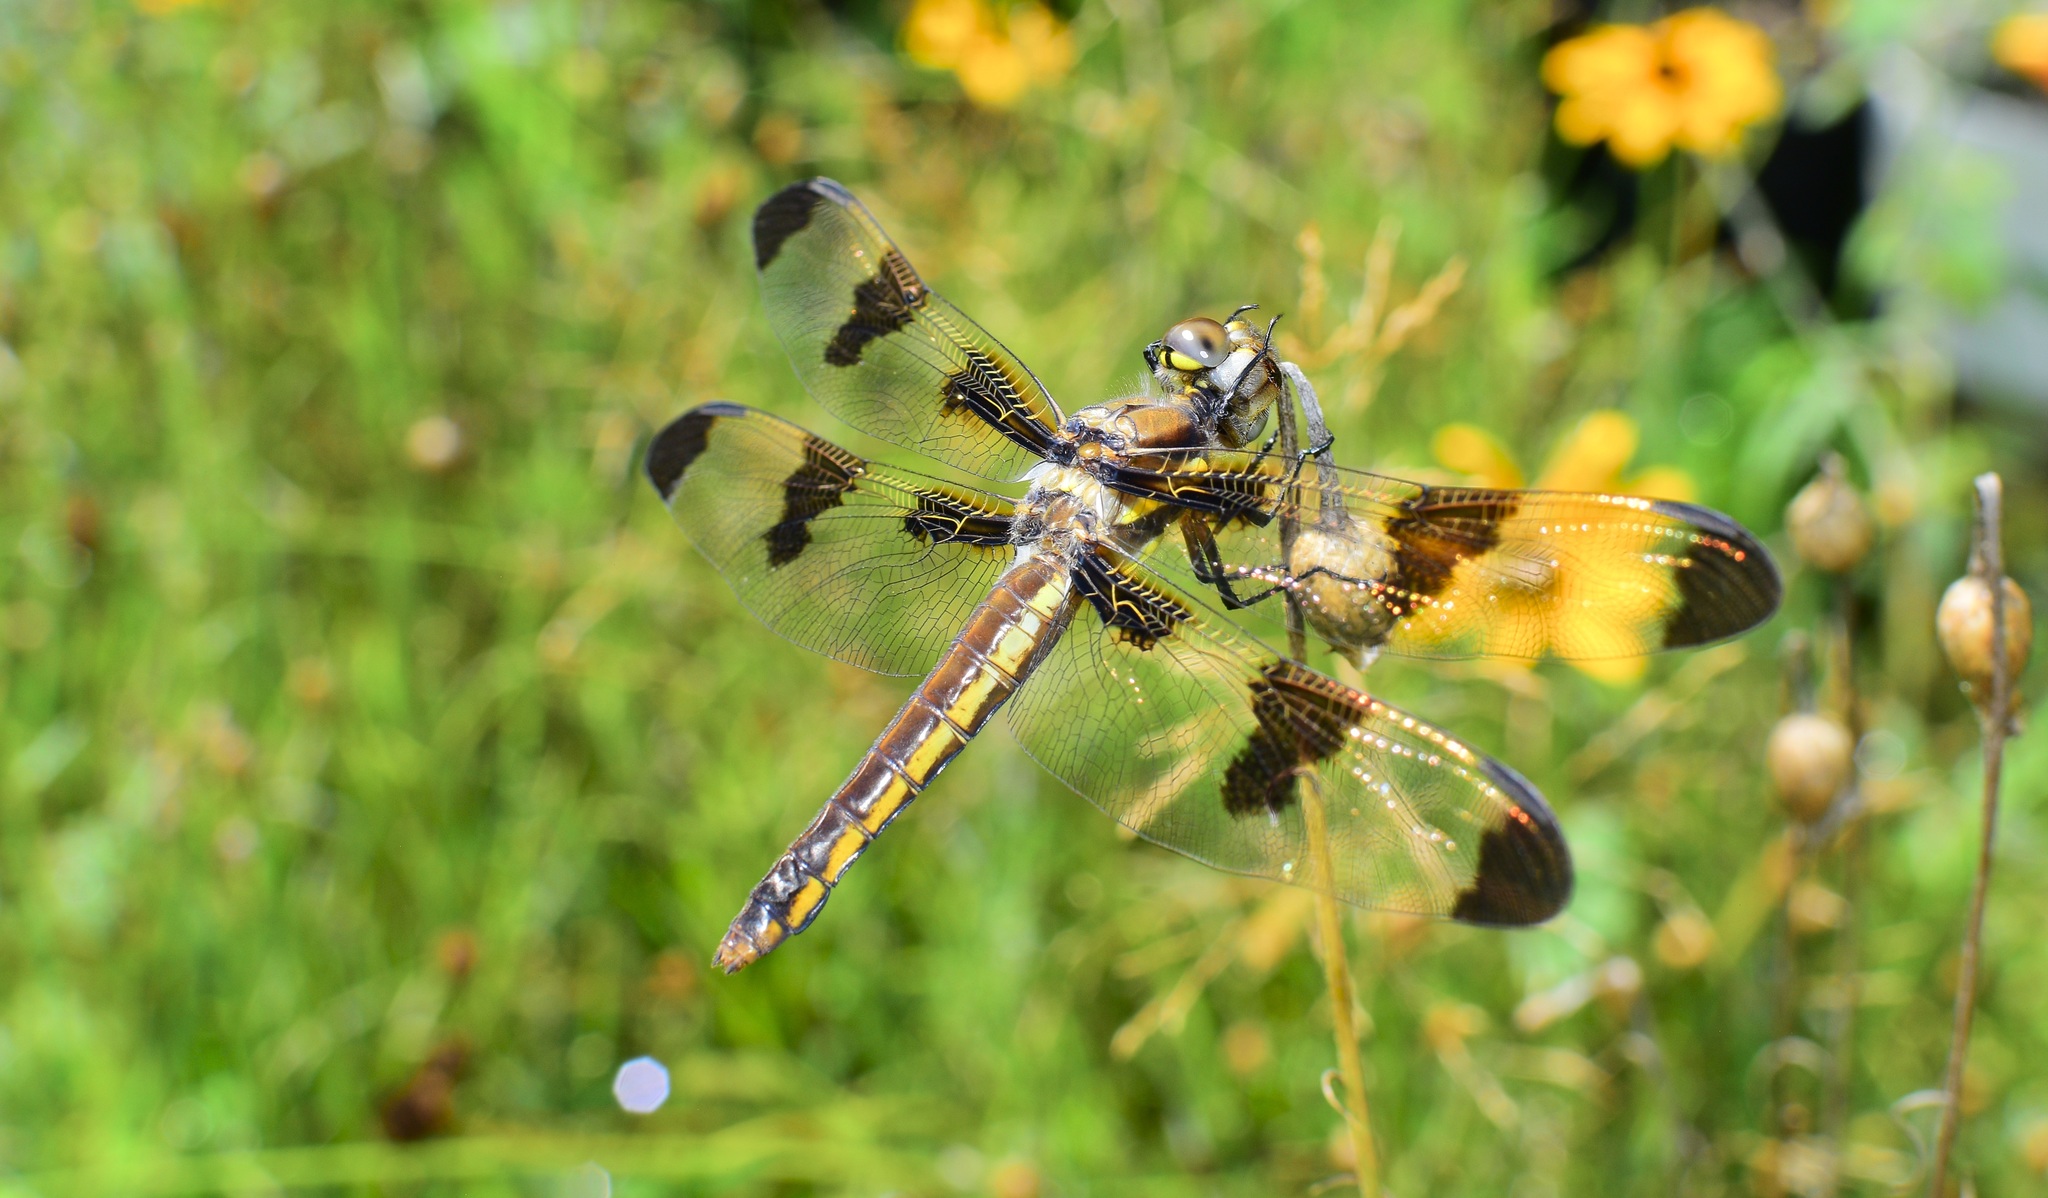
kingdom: Animalia
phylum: Arthropoda
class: Insecta
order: Odonata
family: Libellulidae
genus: Libellula
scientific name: Libellula pulchella
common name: Twelve-spotted skimmer
